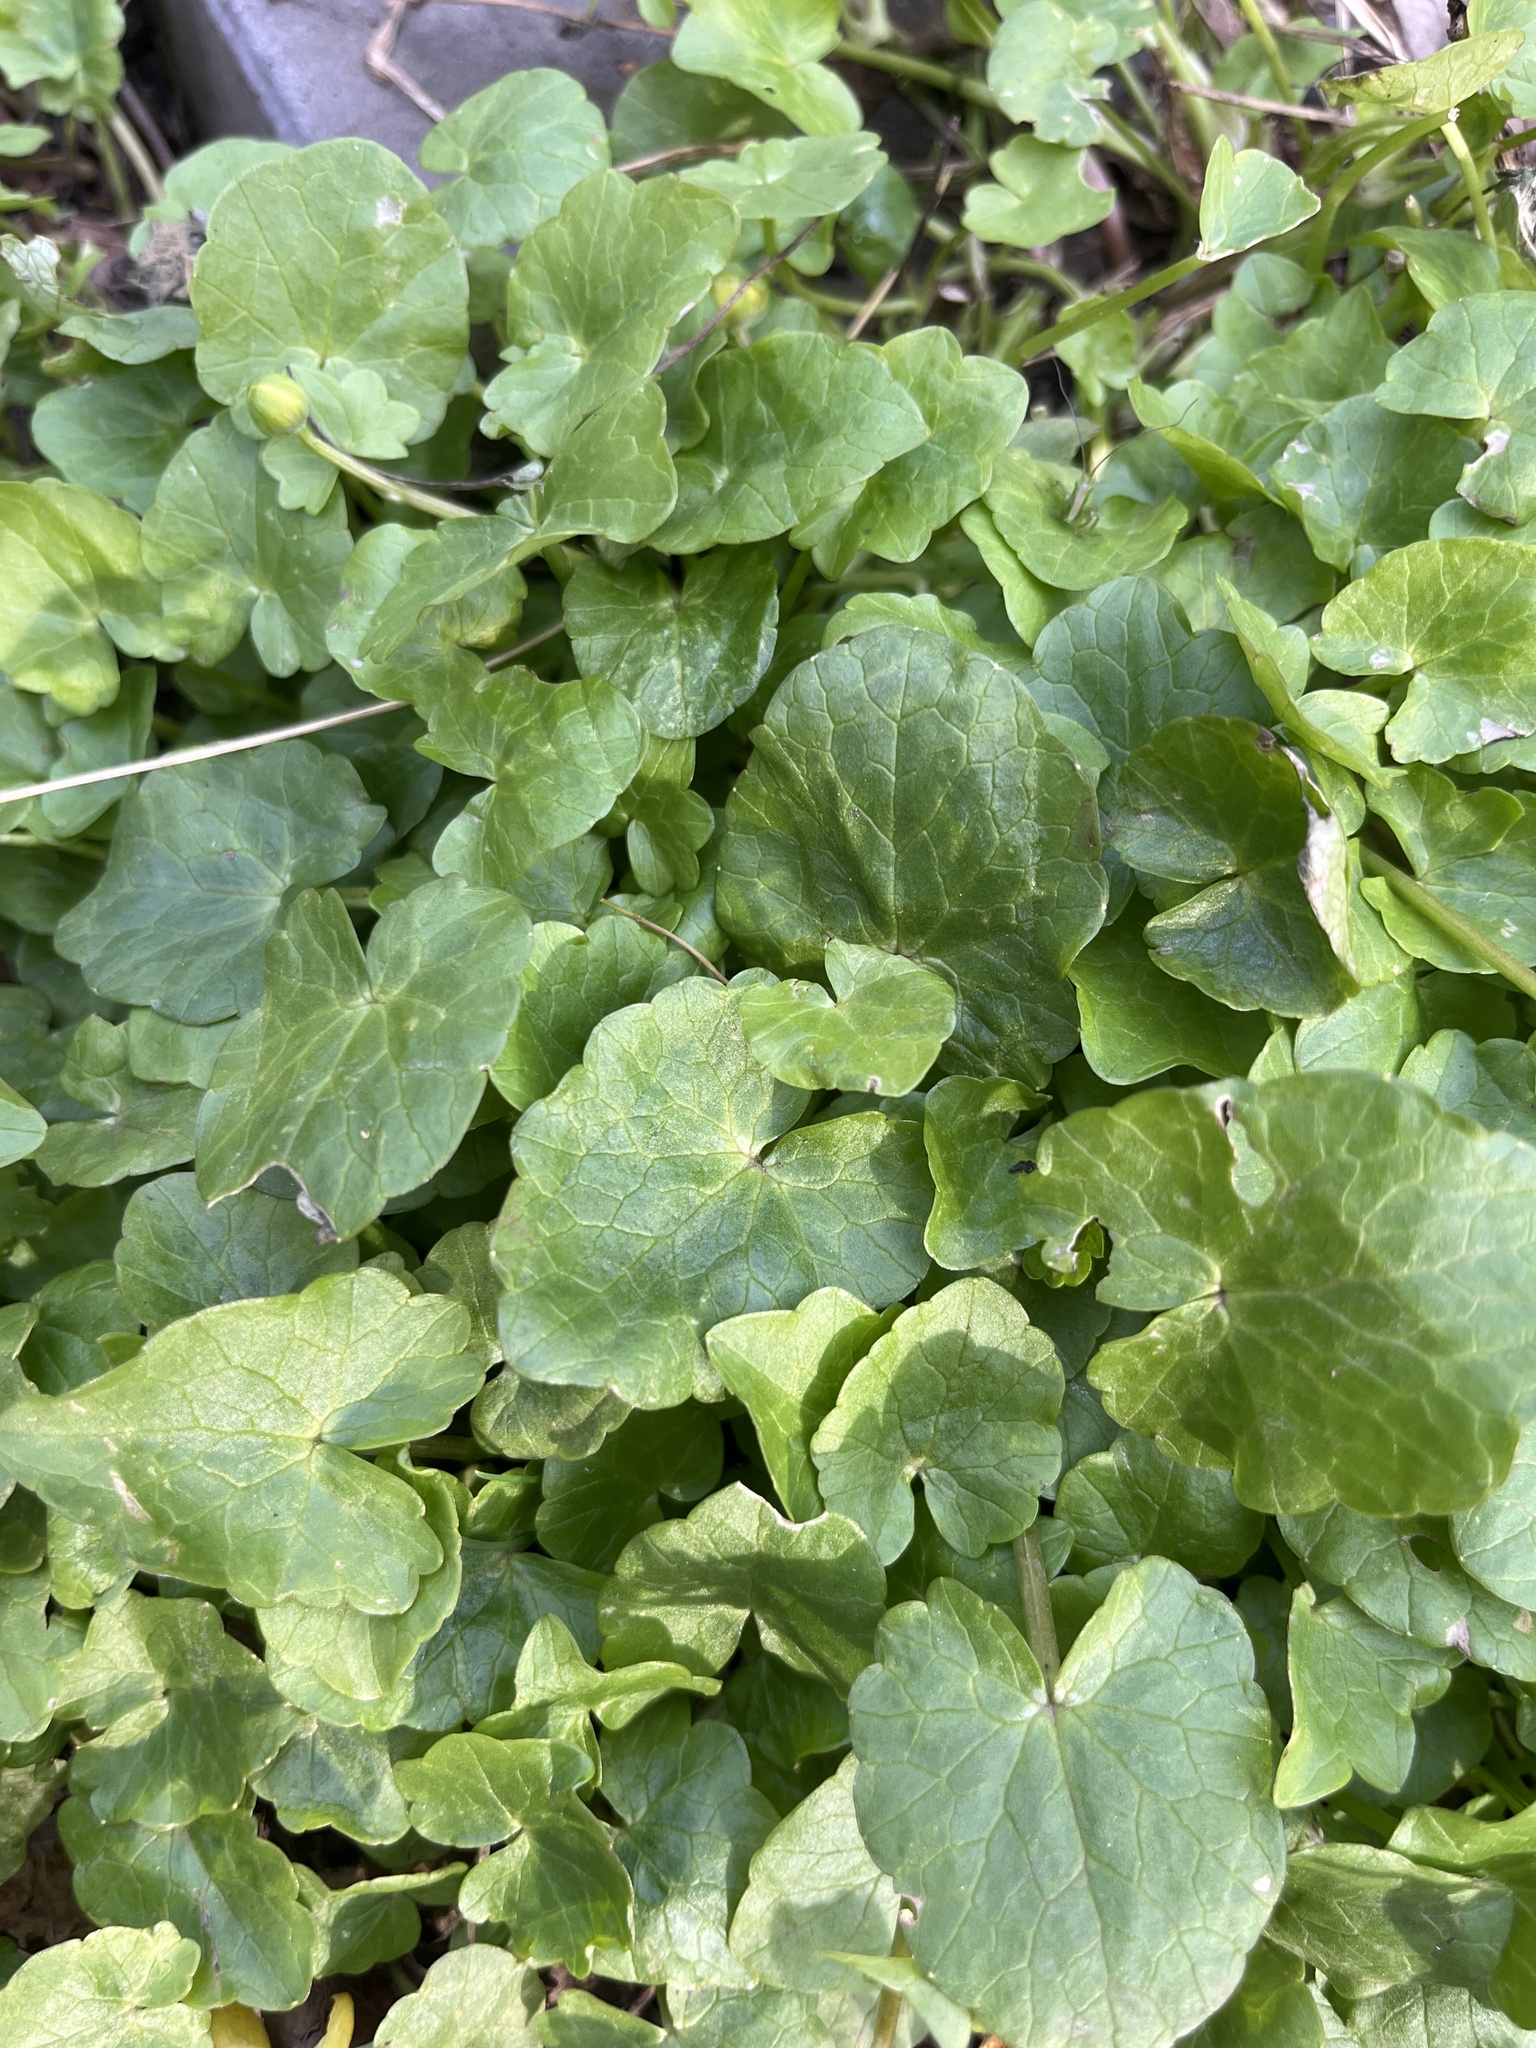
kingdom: Plantae
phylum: Tracheophyta
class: Magnoliopsida
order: Ranunculales
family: Ranunculaceae
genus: Ficaria
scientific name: Ficaria verna
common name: Lesser celandine
